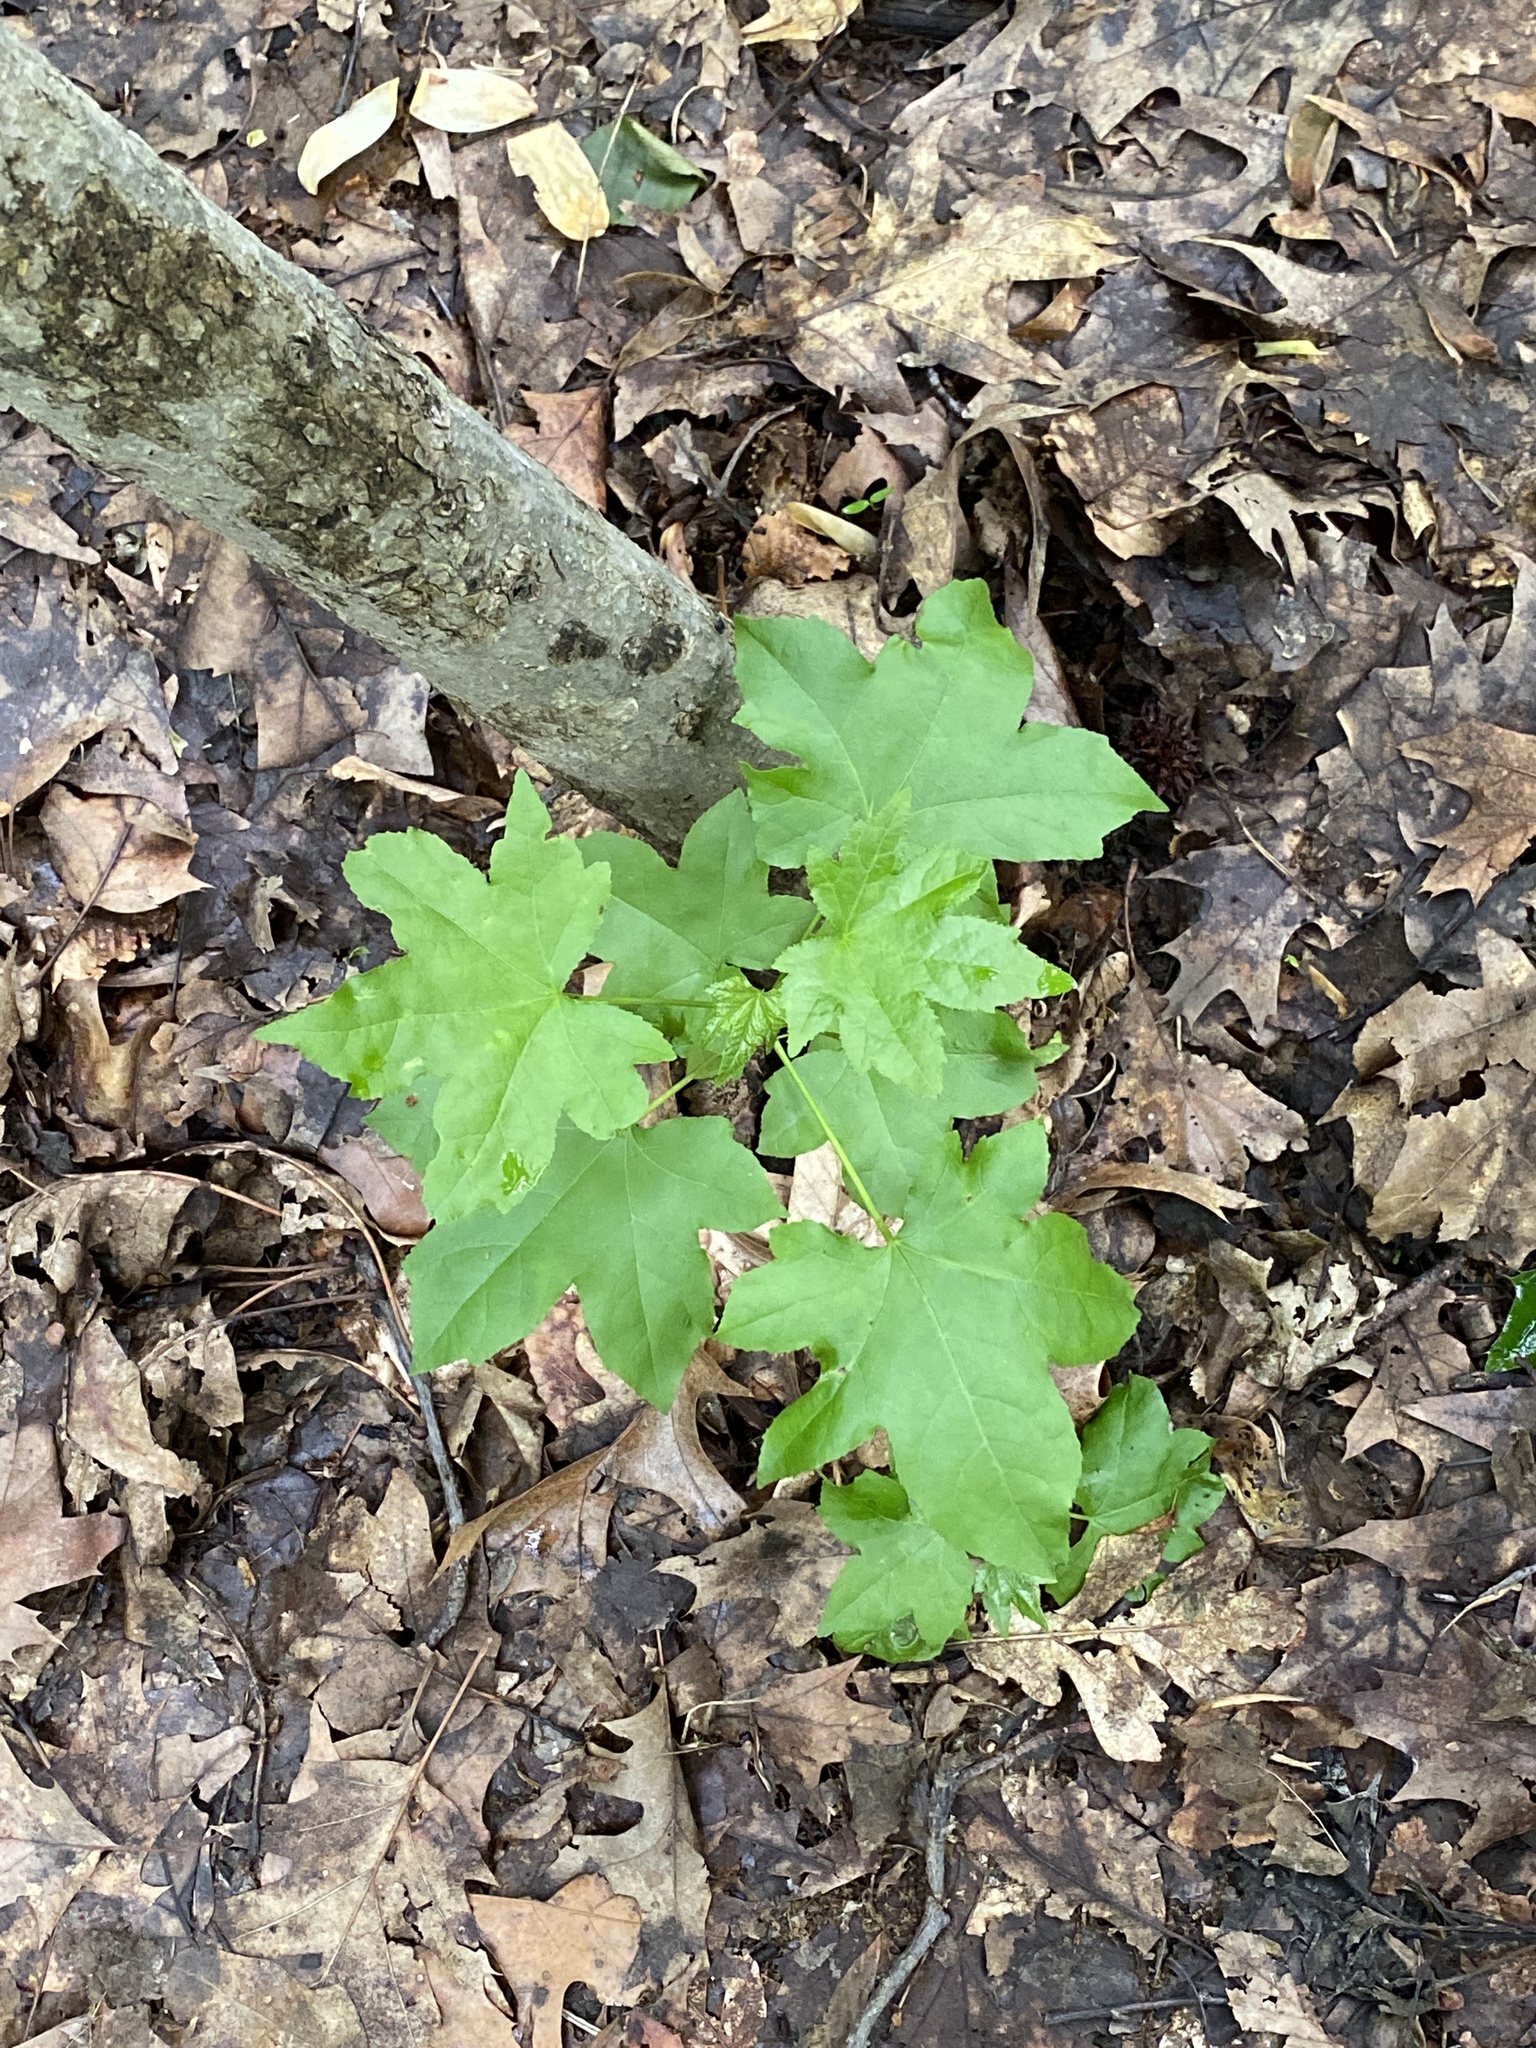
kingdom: Plantae
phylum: Tracheophyta
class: Magnoliopsida
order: Saxifragales
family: Altingiaceae
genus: Liquidambar
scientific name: Liquidambar styraciflua
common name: Sweet gum
